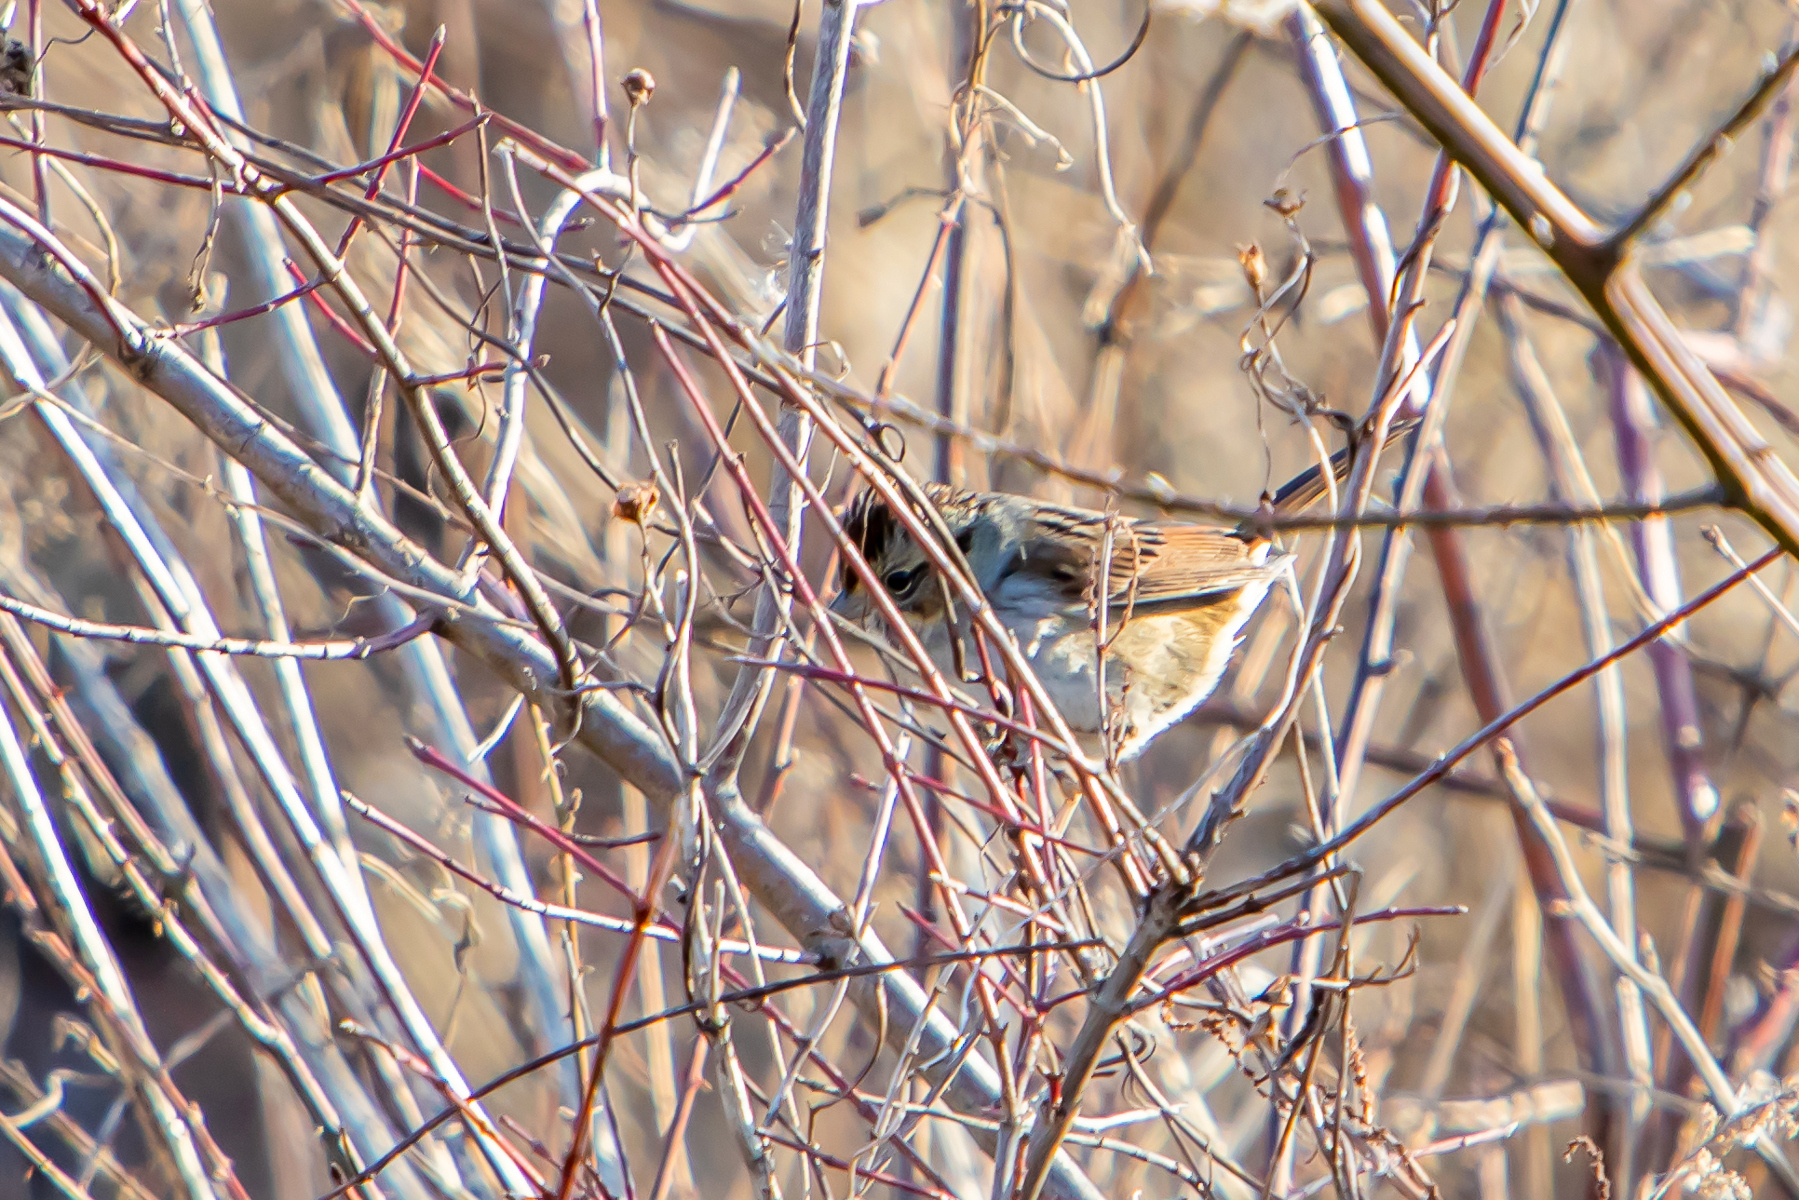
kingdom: Animalia
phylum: Chordata
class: Aves
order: Passeriformes
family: Passerellidae
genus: Melospiza
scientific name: Melospiza georgiana
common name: Swamp sparrow
